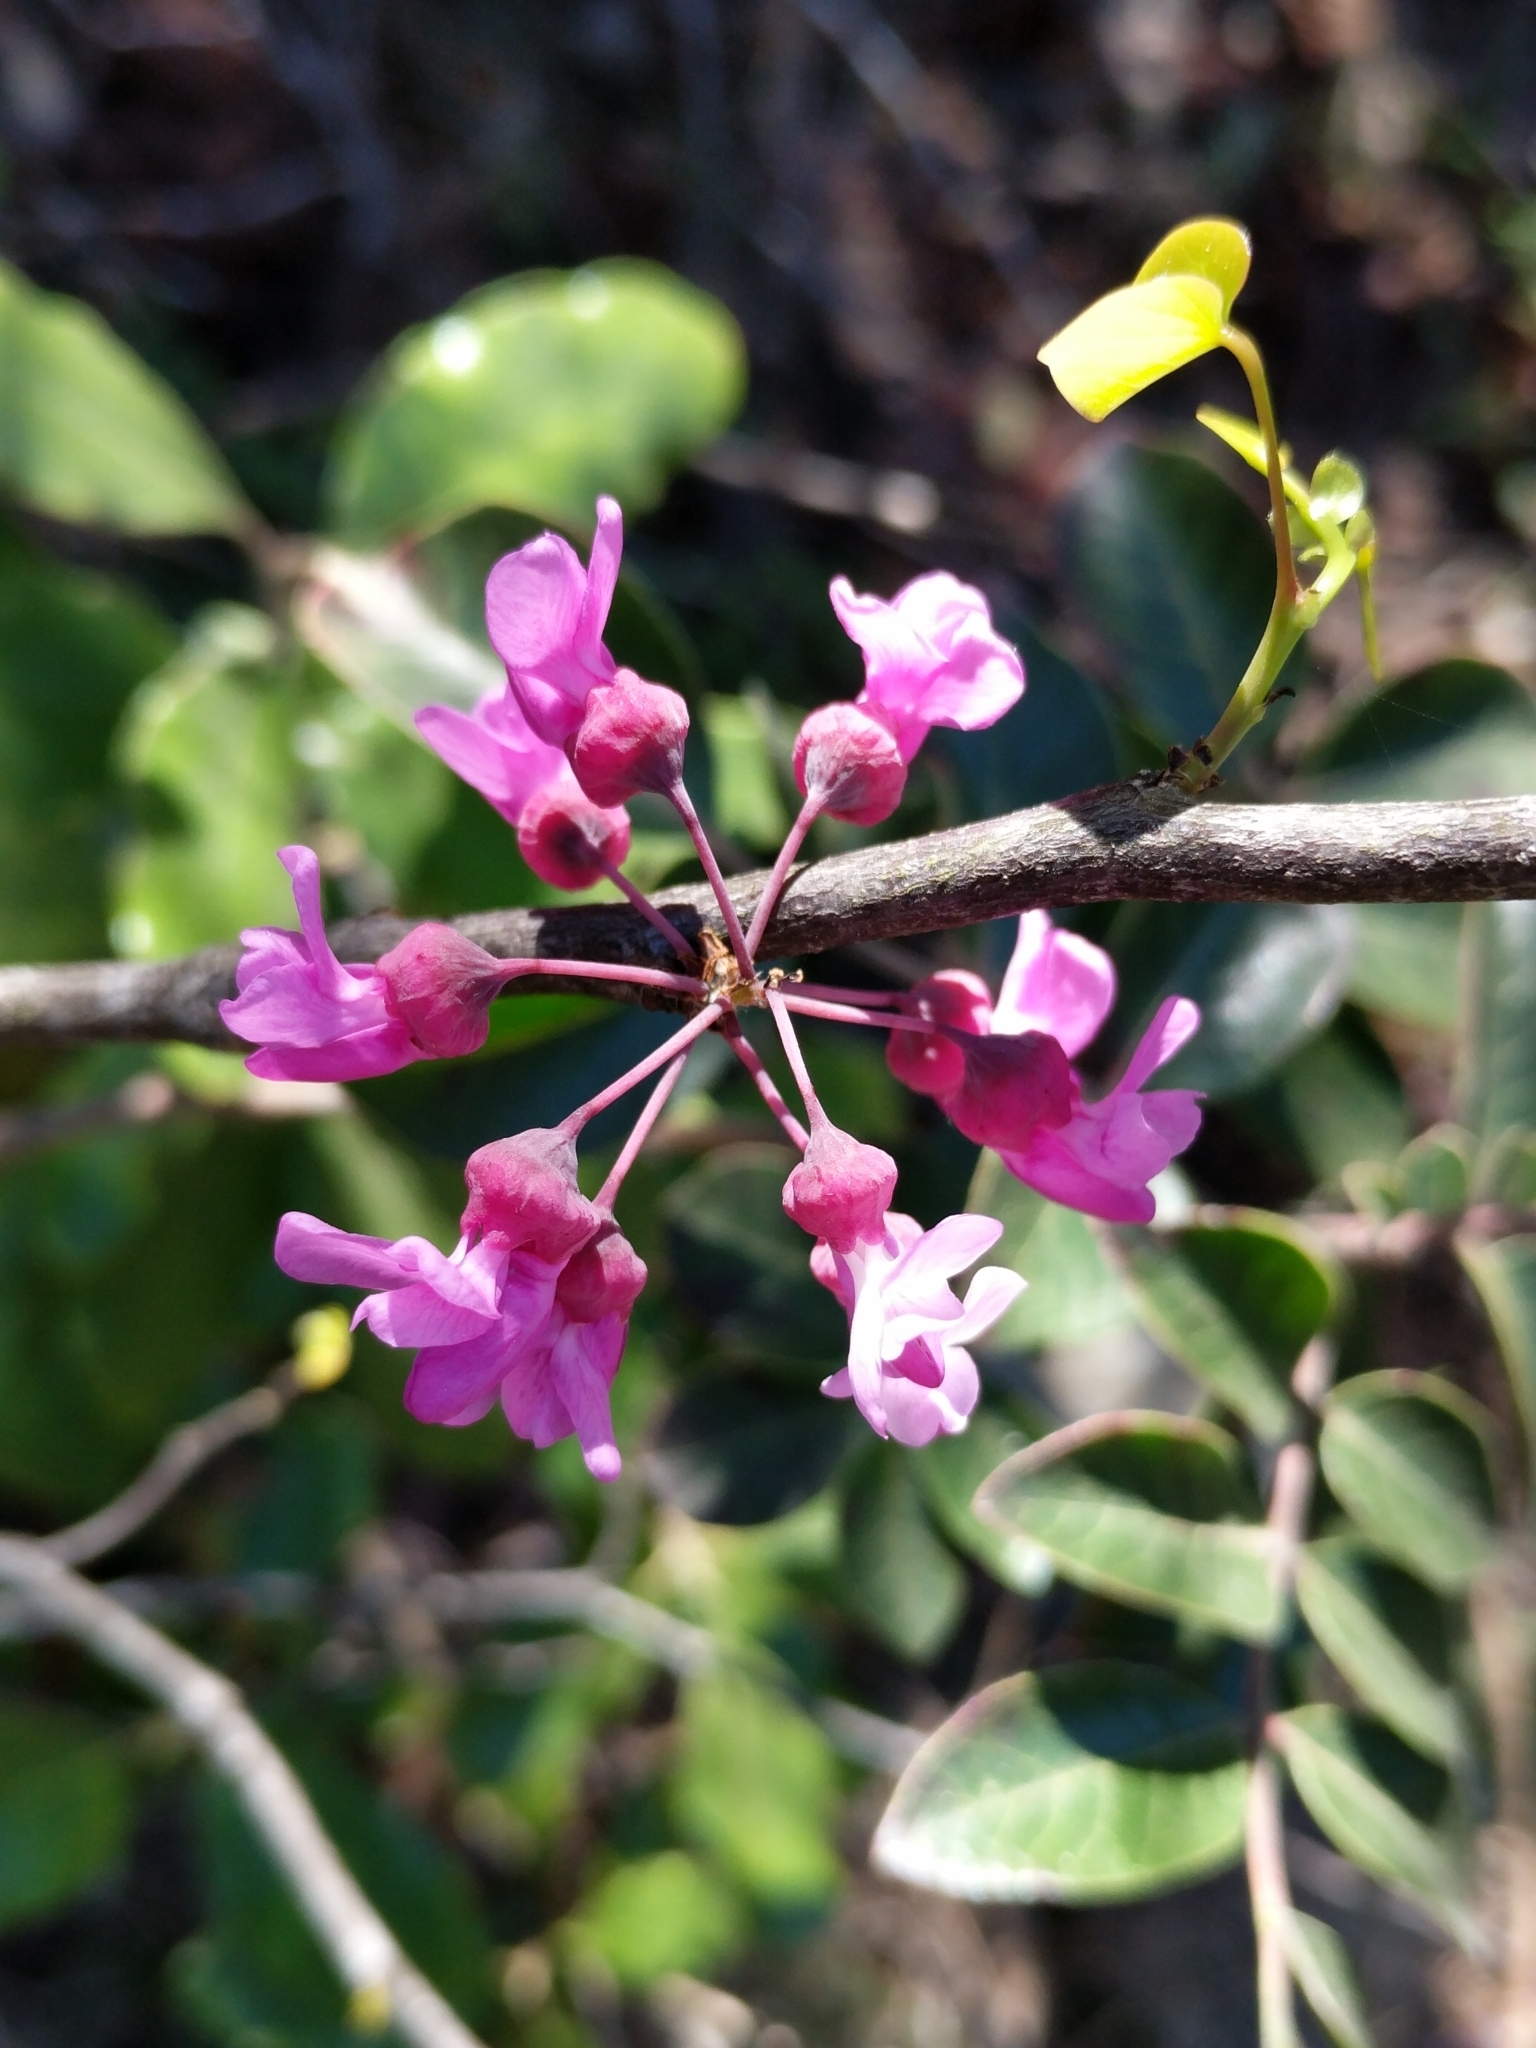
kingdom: Plantae
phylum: Tracheophyta
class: Magnoliopsida
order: Fabales
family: Fabaceae
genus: Cercis
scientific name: Cercis canadensis
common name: Eastern redbud
